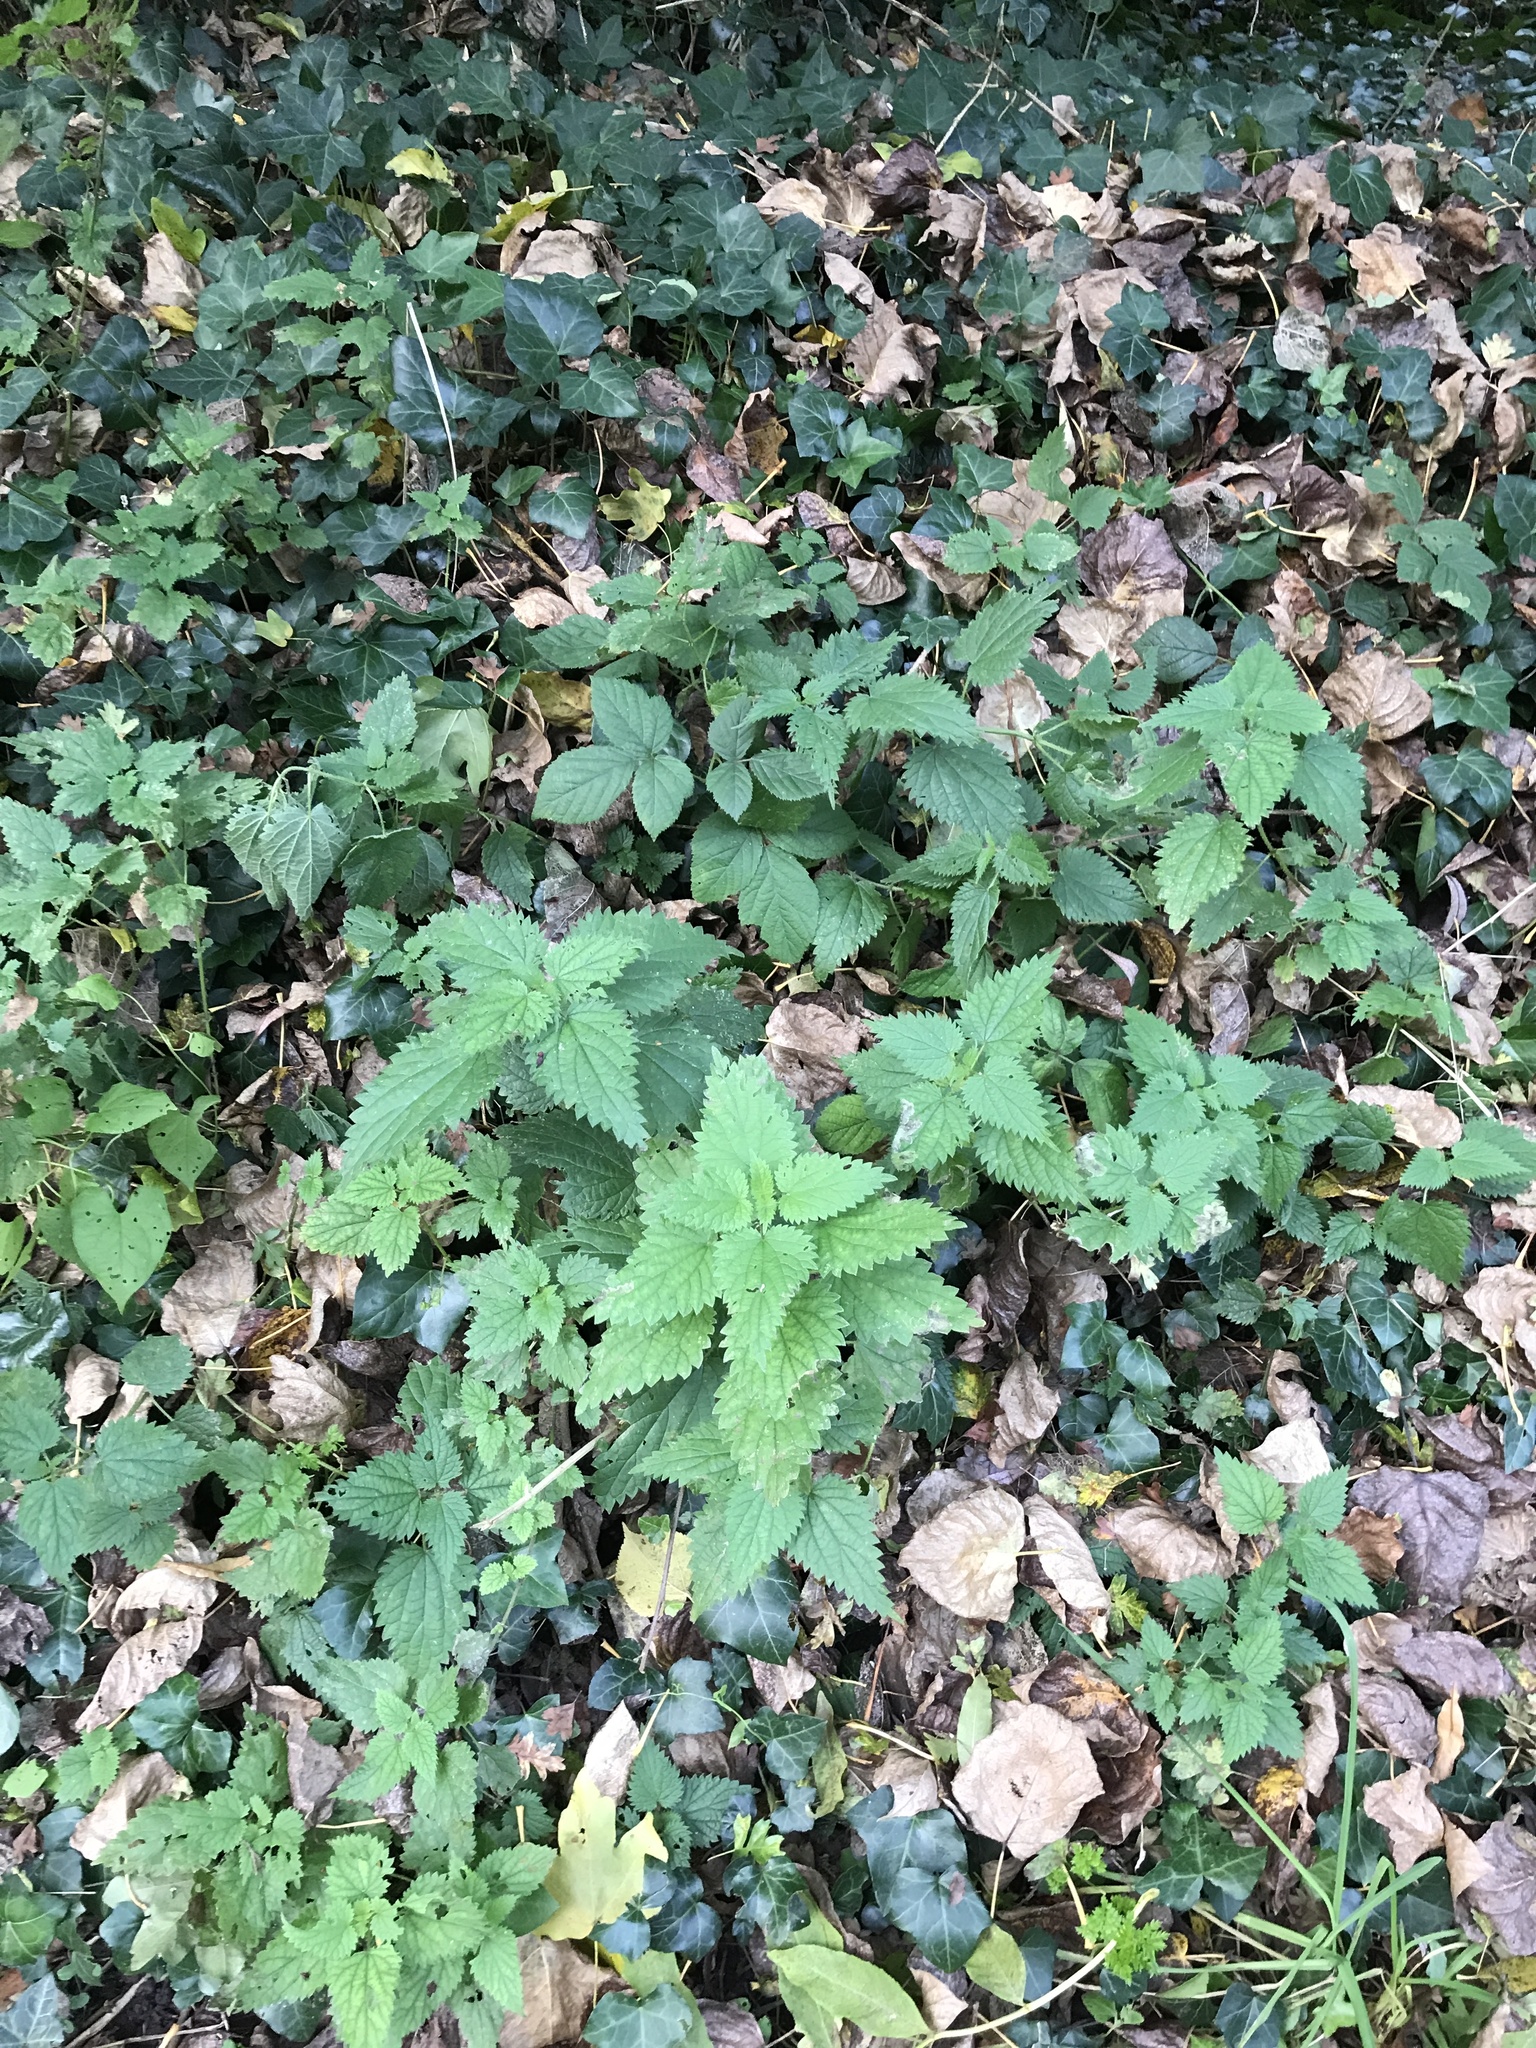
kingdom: Plantae
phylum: Tracheophyta
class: Magnoliopsida
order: Rosales
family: Urticaceae
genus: Urtica
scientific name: Urtica dioica
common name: Common nettle
